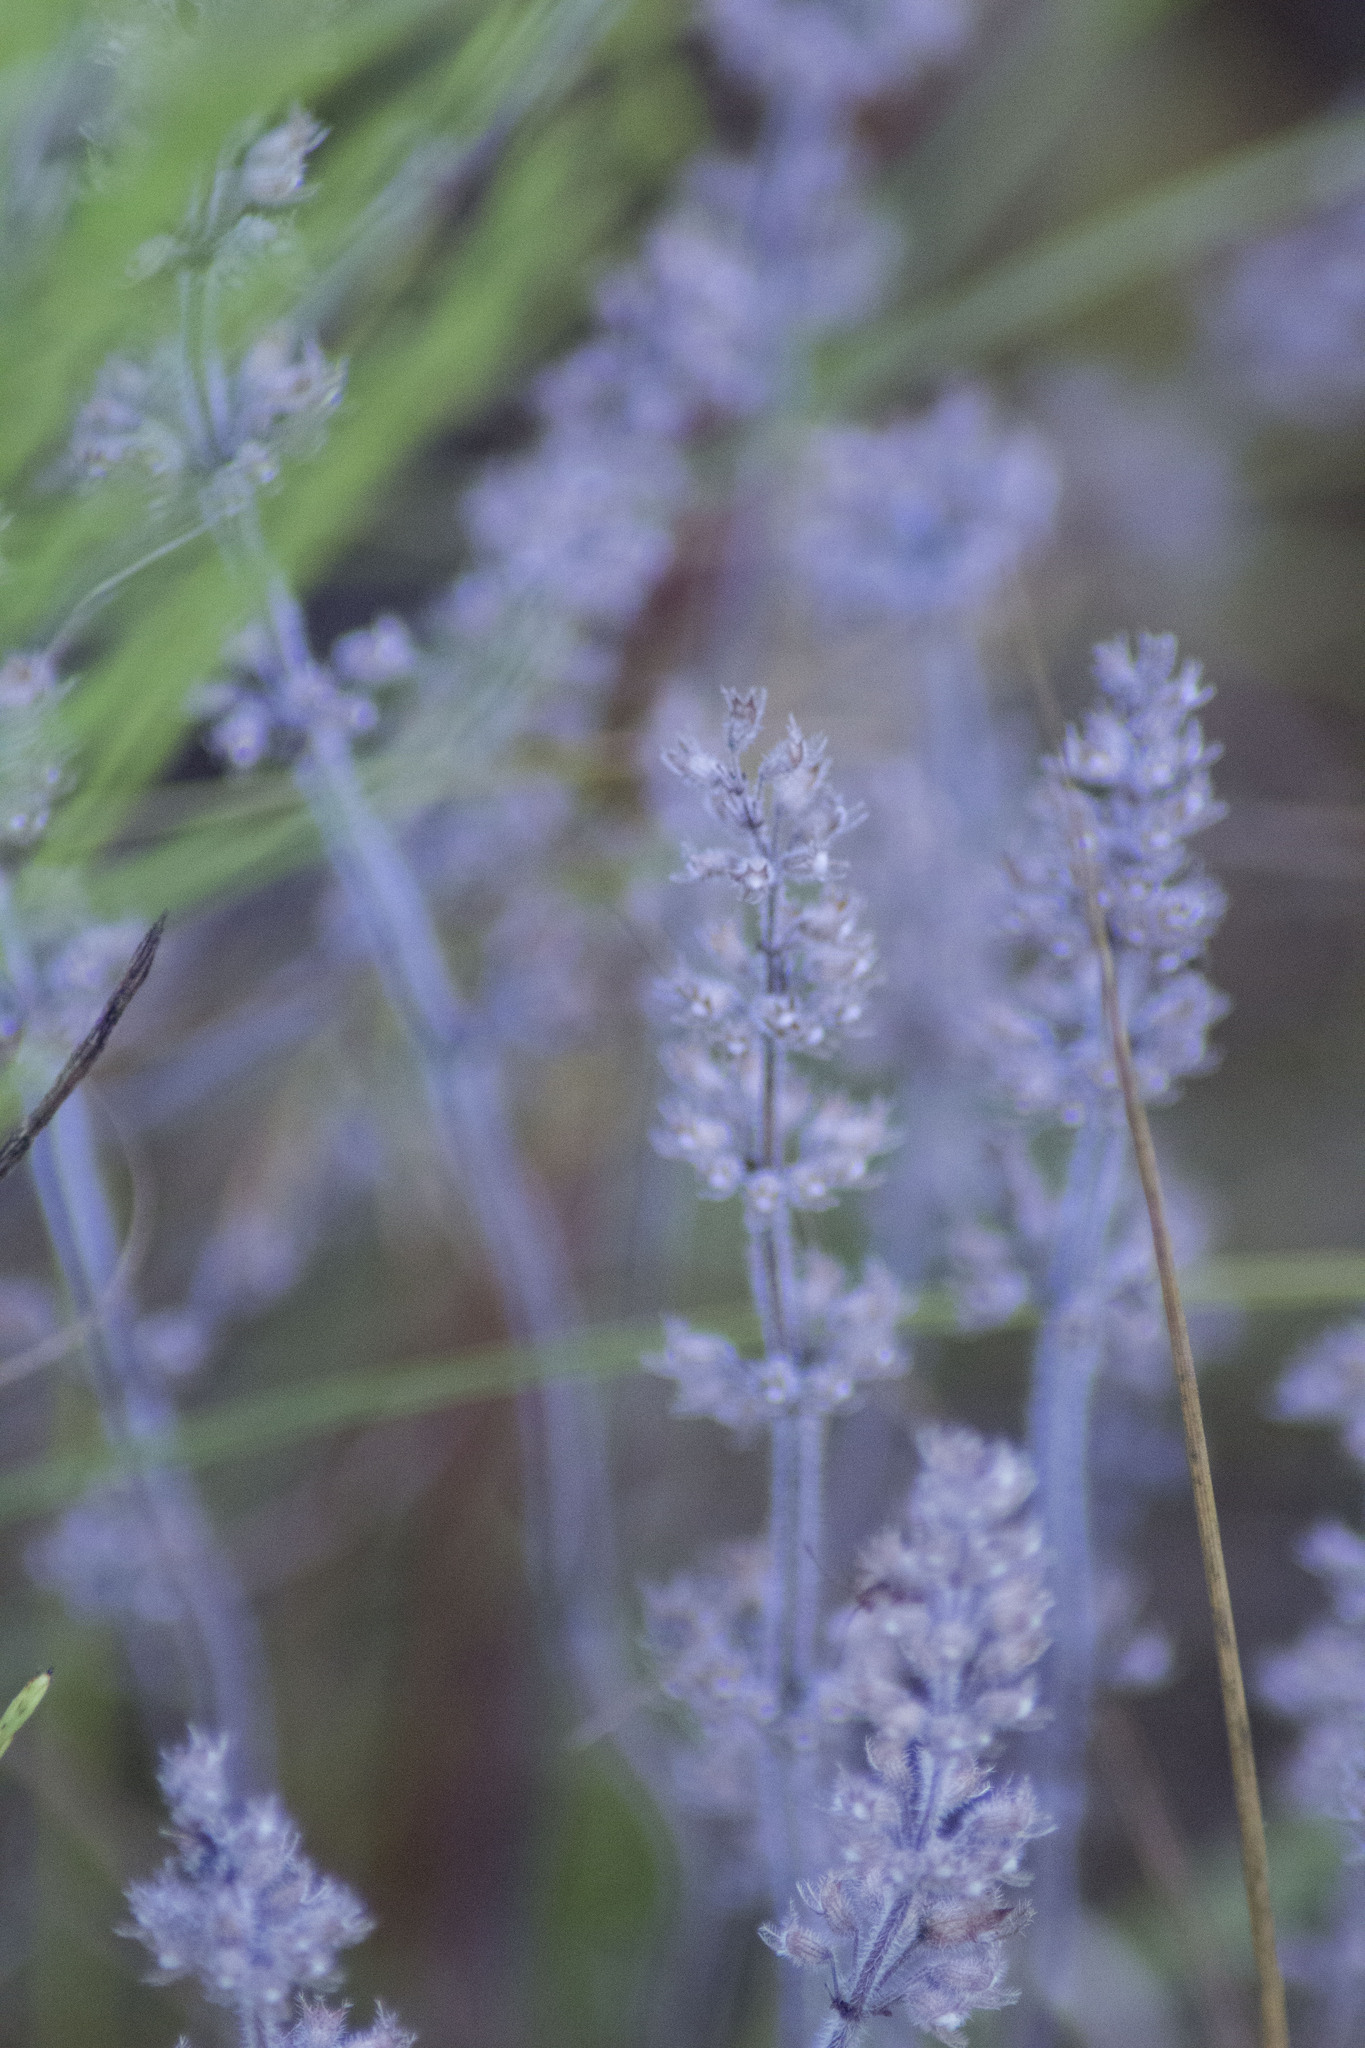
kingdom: Plantae
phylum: Tracheophyta
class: Magnoliopsida
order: Lamiales
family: Lamiaceae
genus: Thymus
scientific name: Thymus pannonicus
